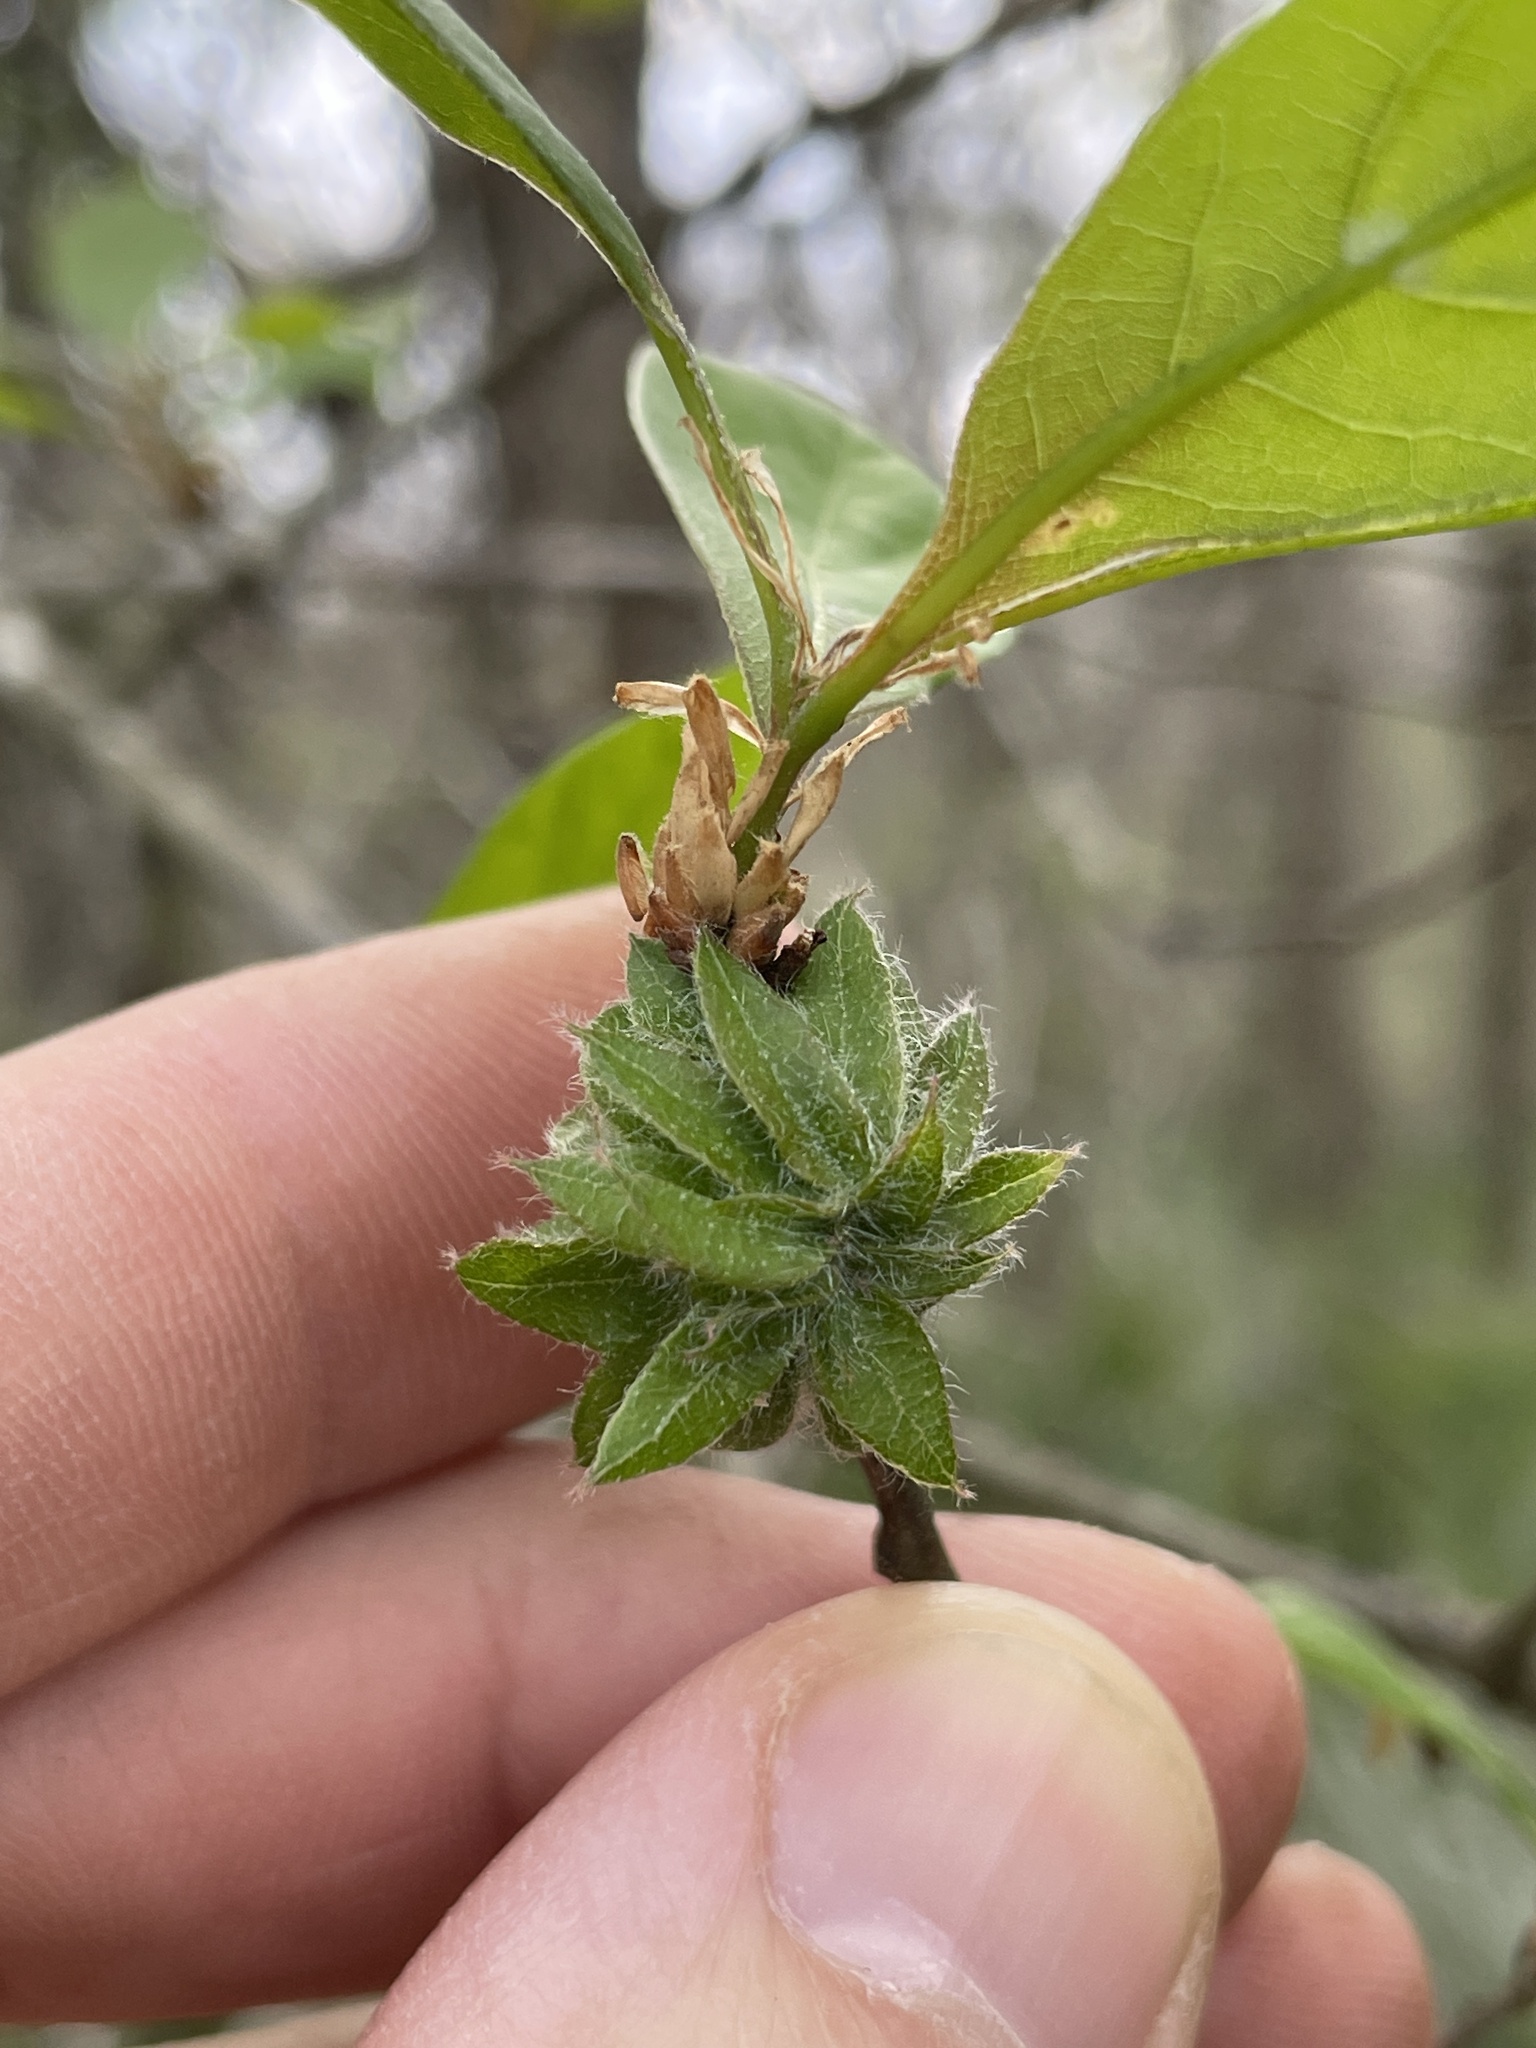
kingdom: Animalia
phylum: Arthropoda
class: Insecta
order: Hymenoptera
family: Cynipidae
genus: Dryocosmus
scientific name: Dryocosmus
